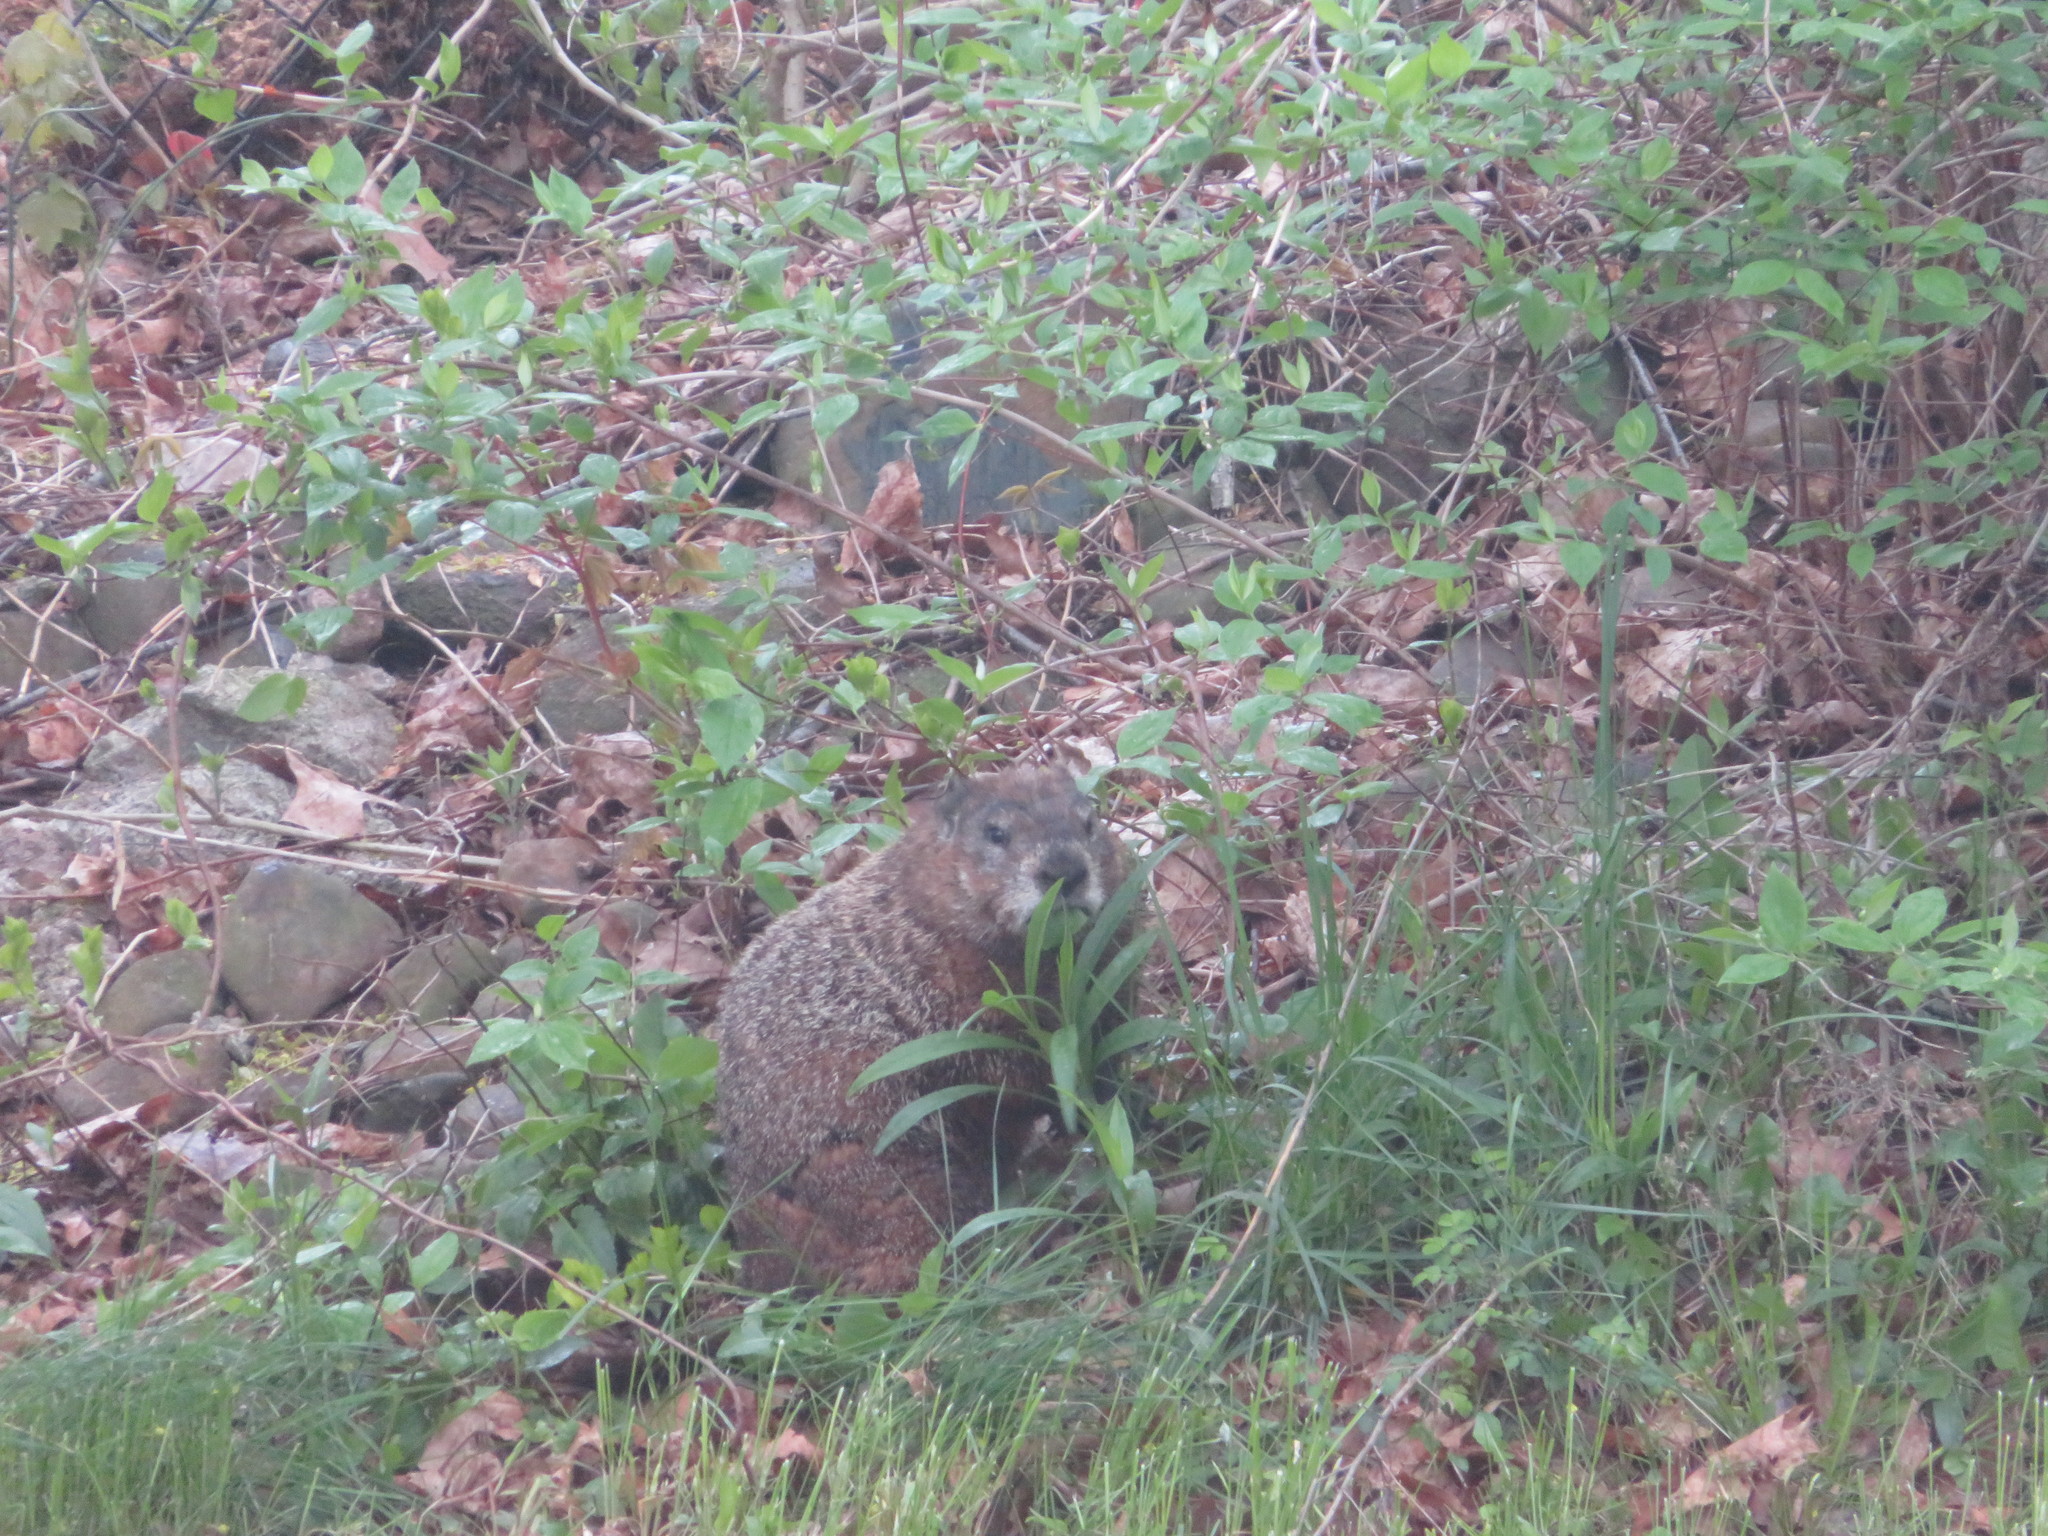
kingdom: Animalia
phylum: Chordata
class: Mammalia
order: Rodentia
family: Sciuridae
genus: Marmota
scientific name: Marmota monax
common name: Groundhog
